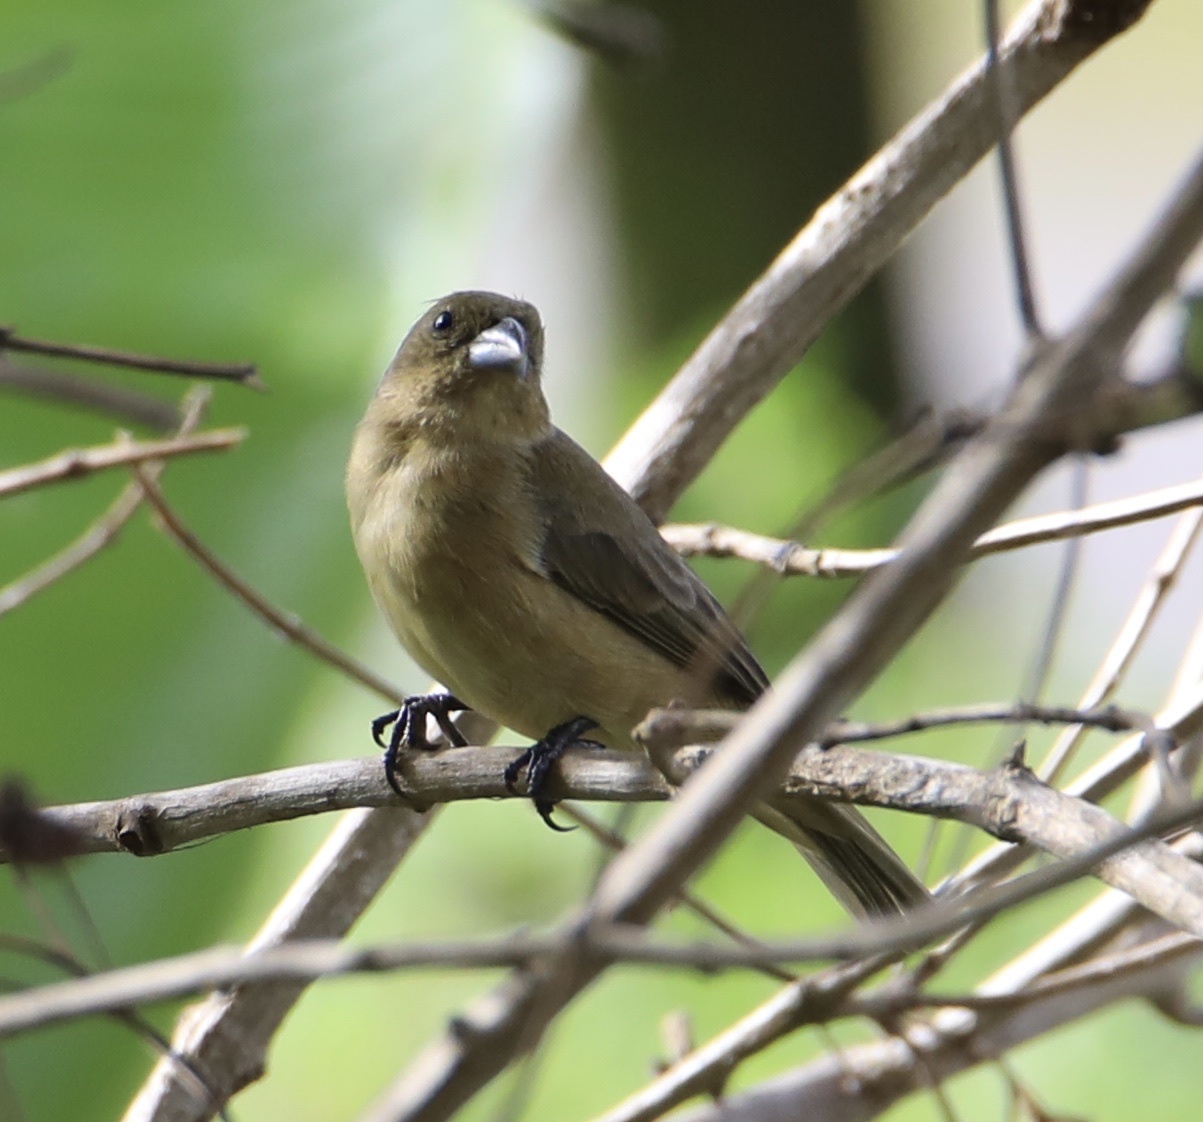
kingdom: Animalia
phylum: Chordata
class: Aves
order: Passeriformes
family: Thraupidae
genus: Sporophila
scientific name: Sporophila nigricollis
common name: Yellow-bellied seedeater
